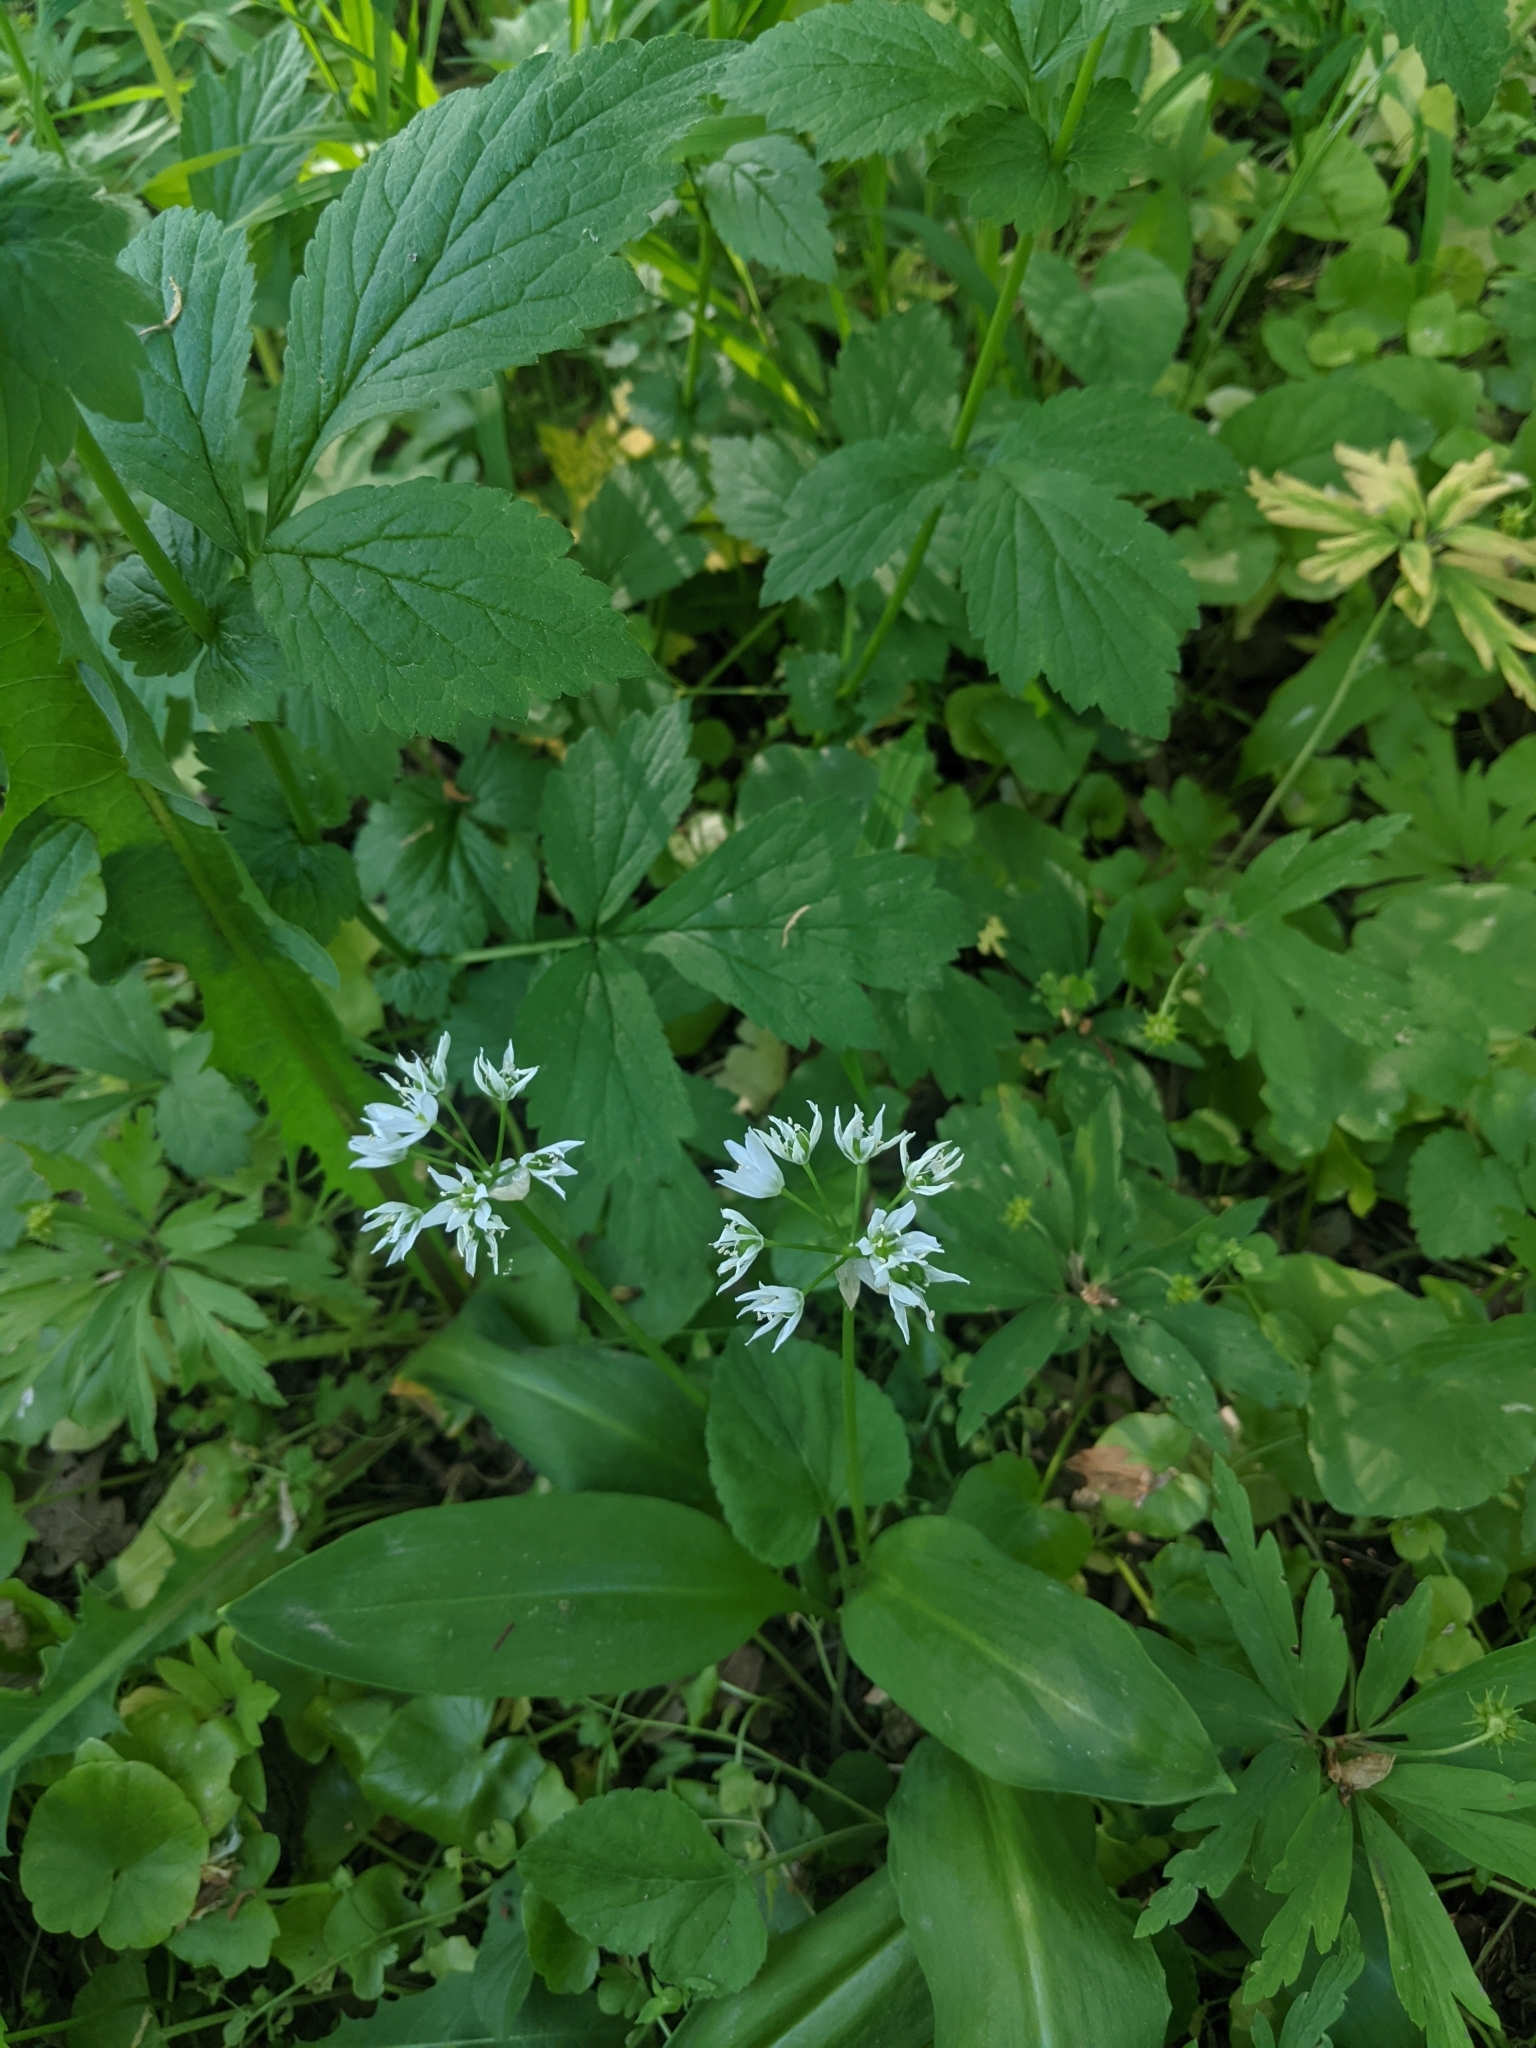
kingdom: Plantae
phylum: Tracheophyta
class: Liliopsida
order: Asparagales
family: Amaryllidaceae
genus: Allium
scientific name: Allium ursinum
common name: Ramsons
